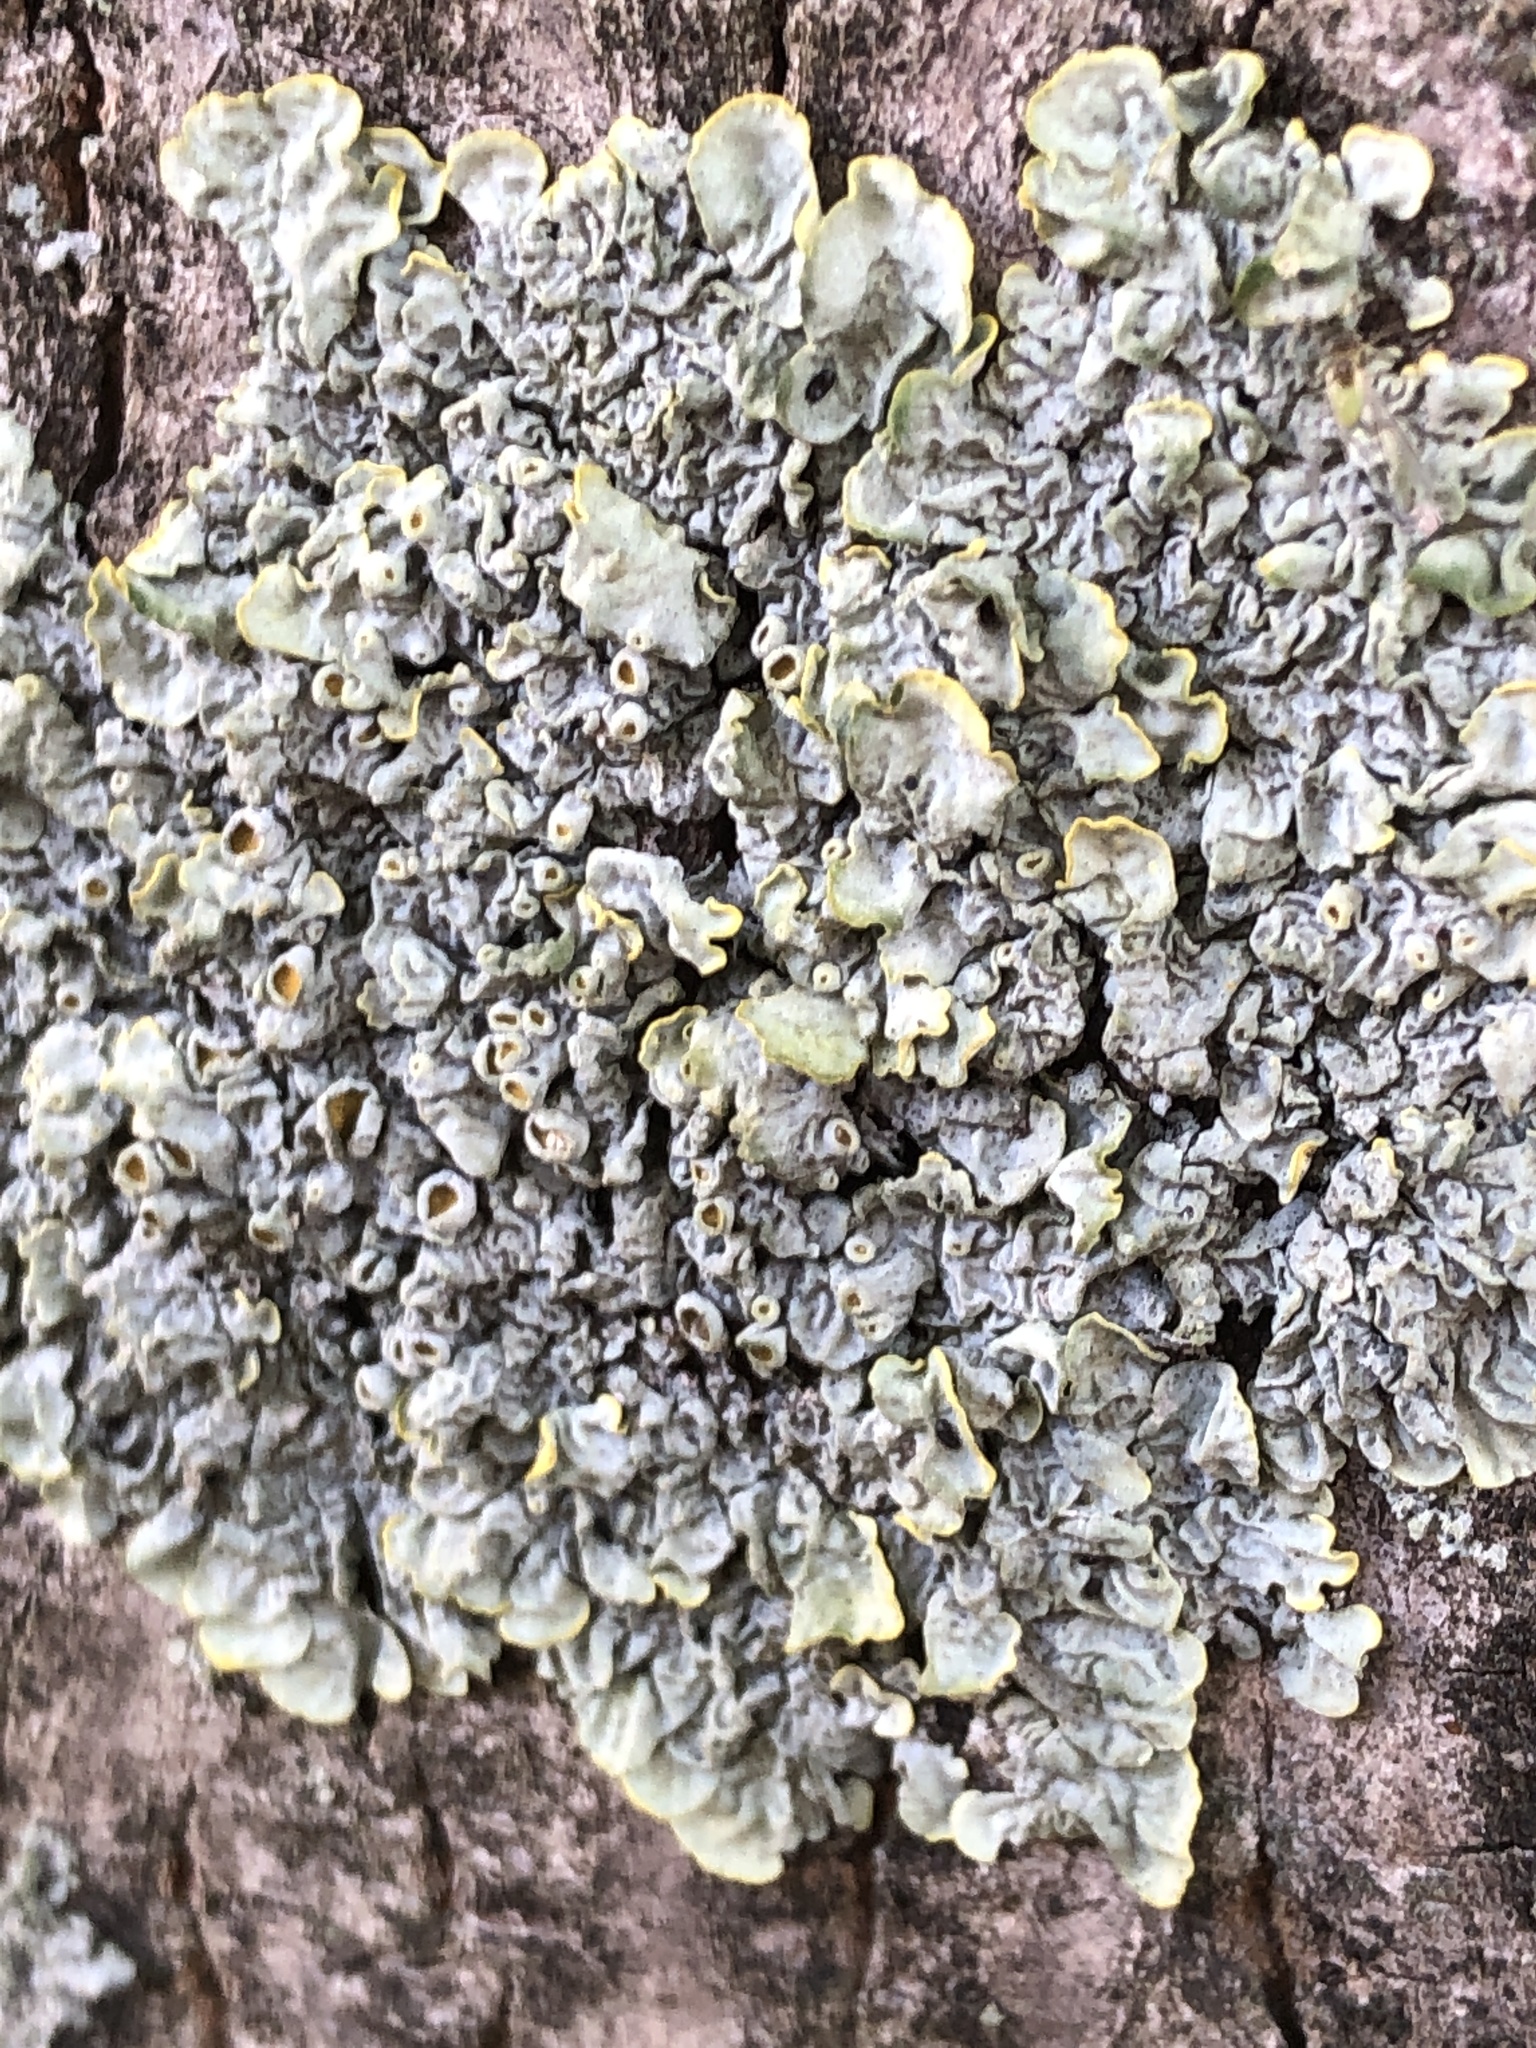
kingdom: Fungi
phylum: Ascomycota
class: Lecanoromycetes
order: Teloschistales
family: Teloschistaceae
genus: Xanthoria
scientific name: Xanthoria parietina
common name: Common orange lichen
